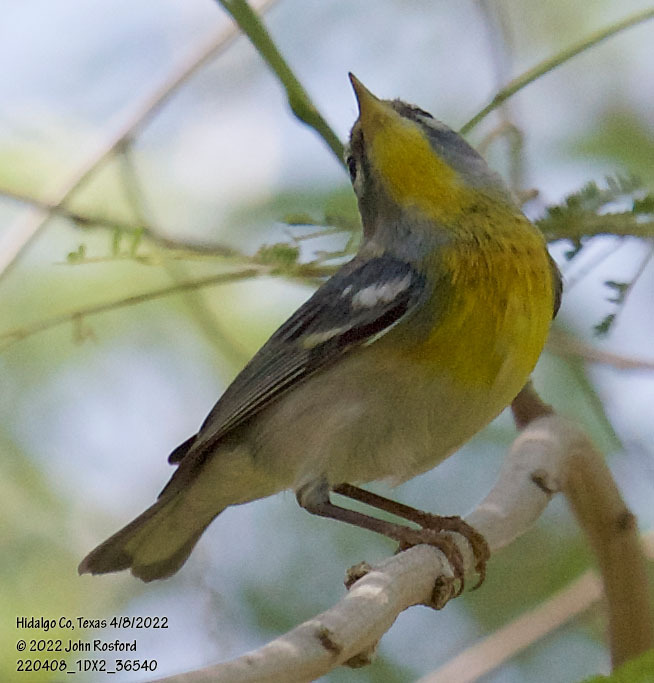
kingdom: Animalia
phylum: Chordata
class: Aves
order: Passeriformes
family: Parulidae
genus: Setophaga
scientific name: Setophaga americana
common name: Northern parula
